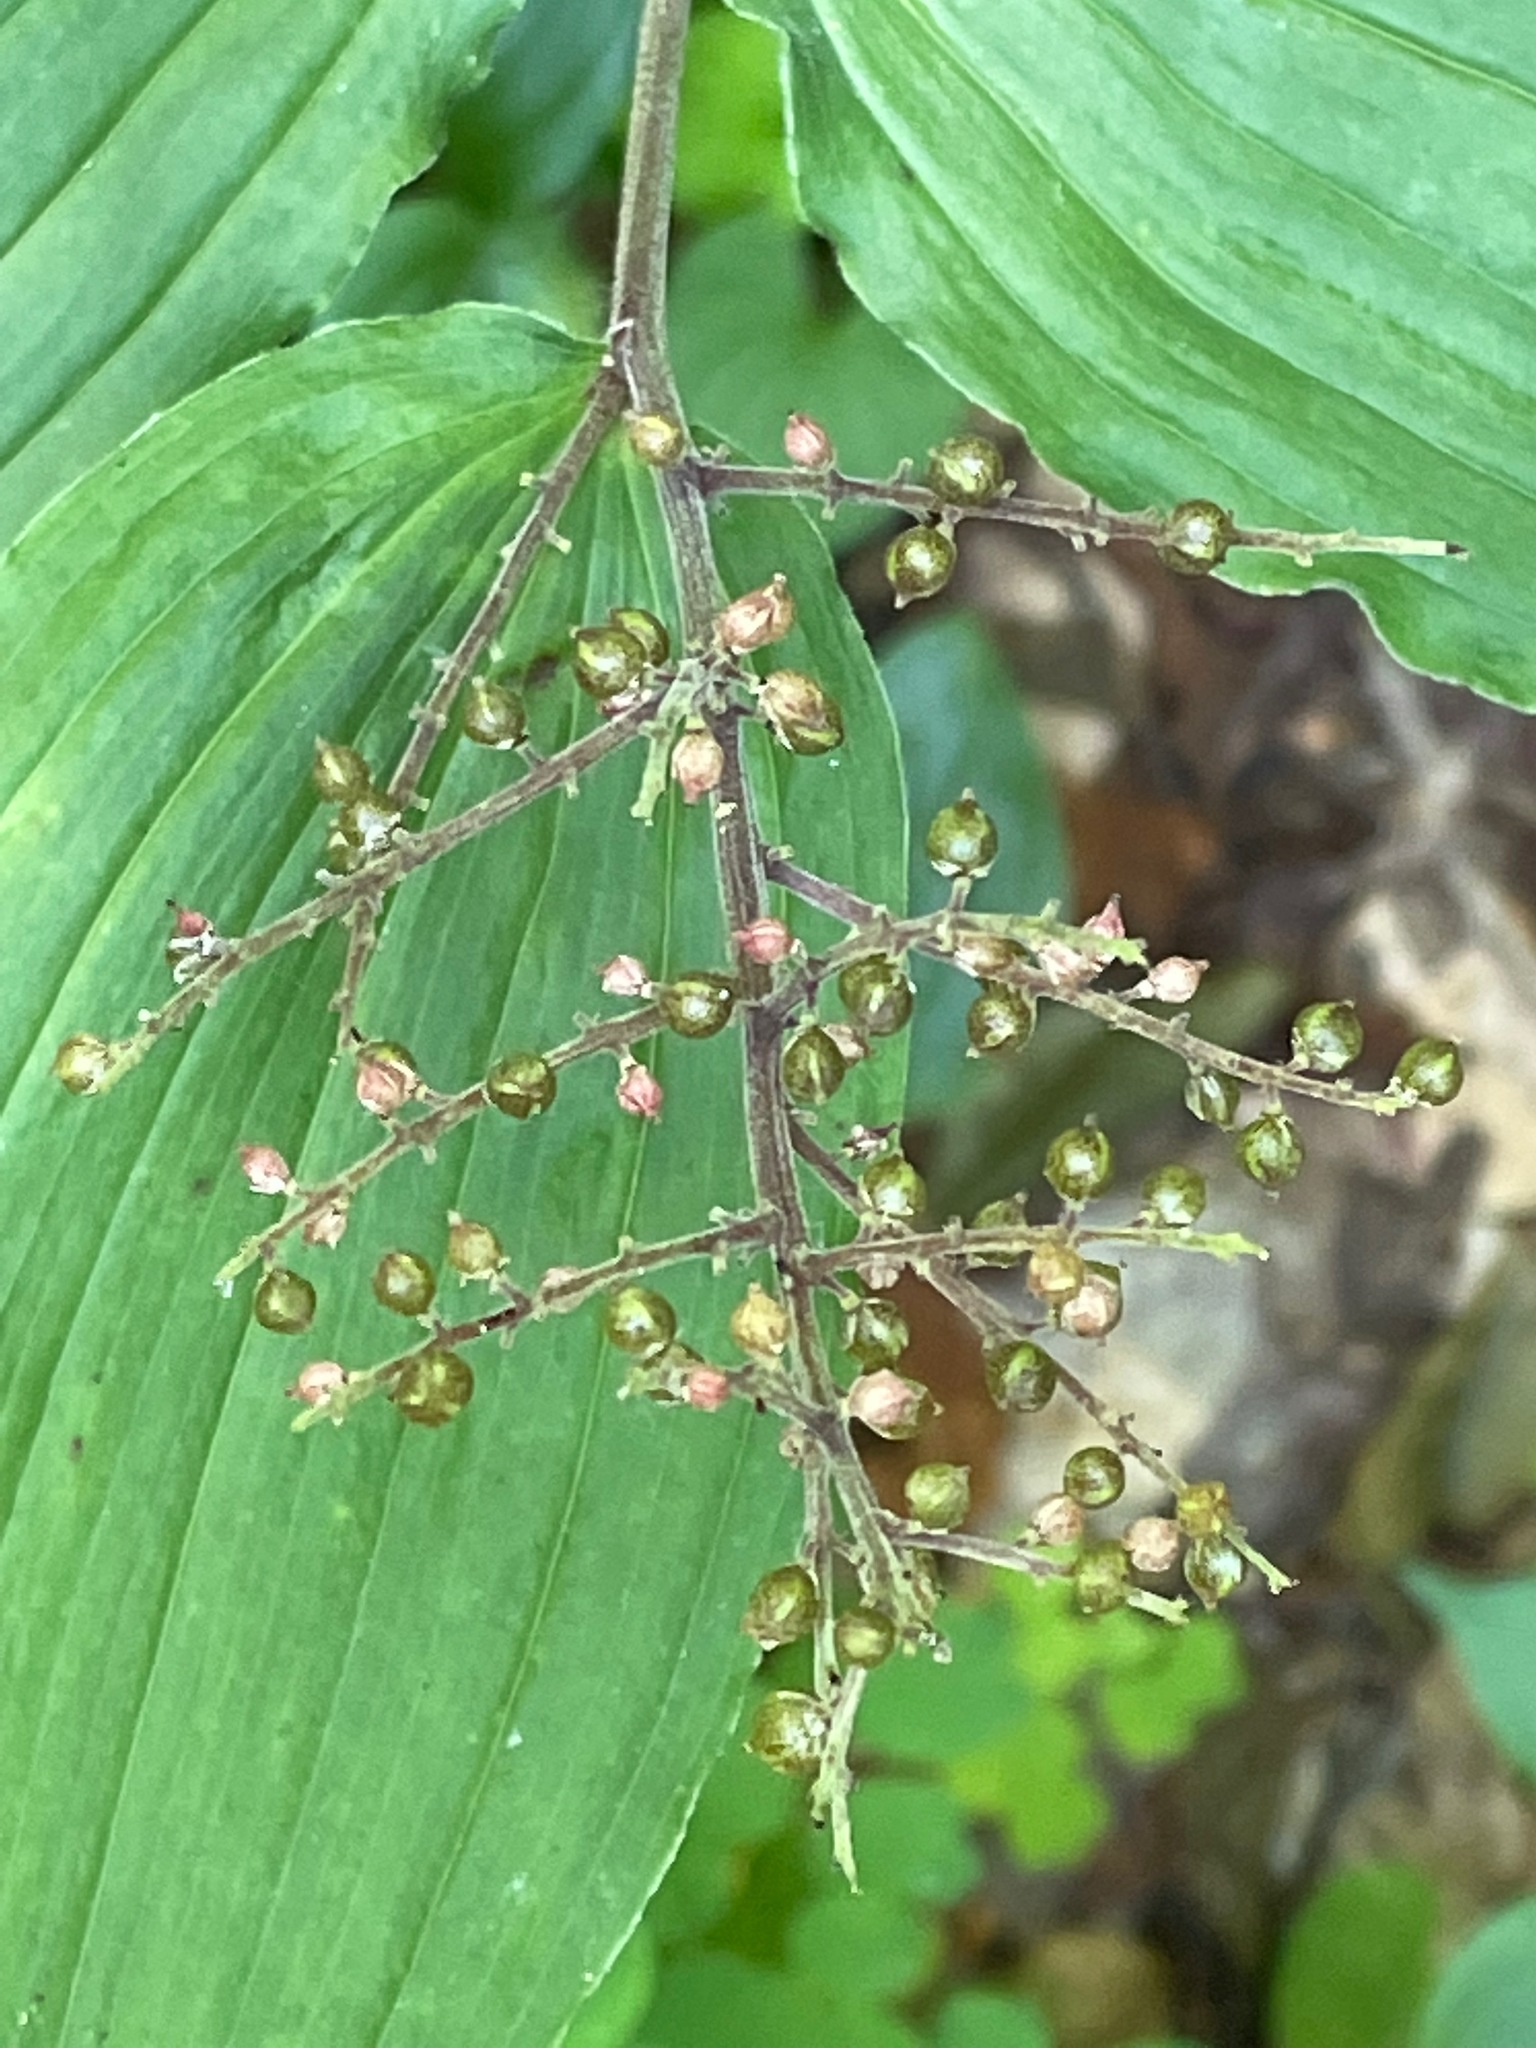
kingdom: Plantae
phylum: Tracheophyta
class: Liliopsida
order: Asparagales
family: Asparagaceae
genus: Maianthemum
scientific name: Maianthemum racemosum
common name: False spikenard
